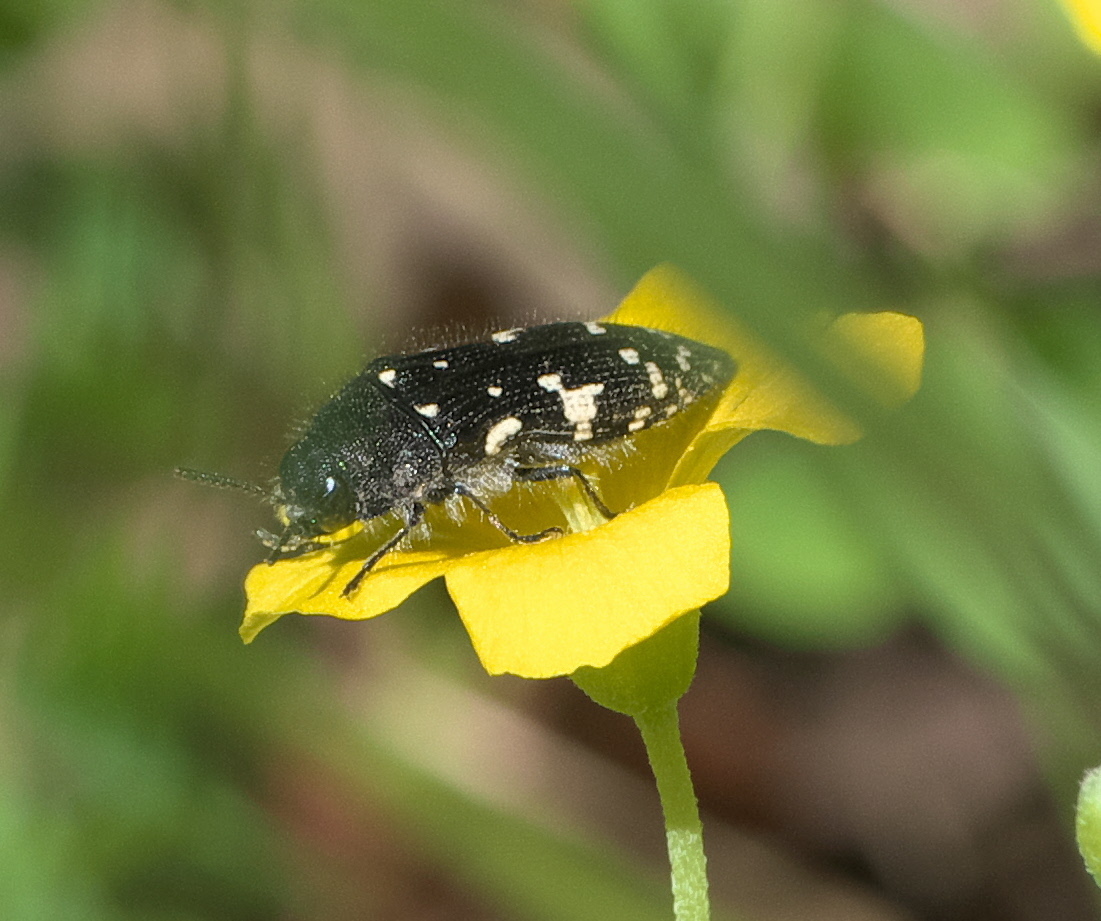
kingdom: Animalia
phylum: Arthropoda
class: Insecta
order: Coleoptera
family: Buprestidae
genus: Acmaeodera
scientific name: Acmaeodera ornata
